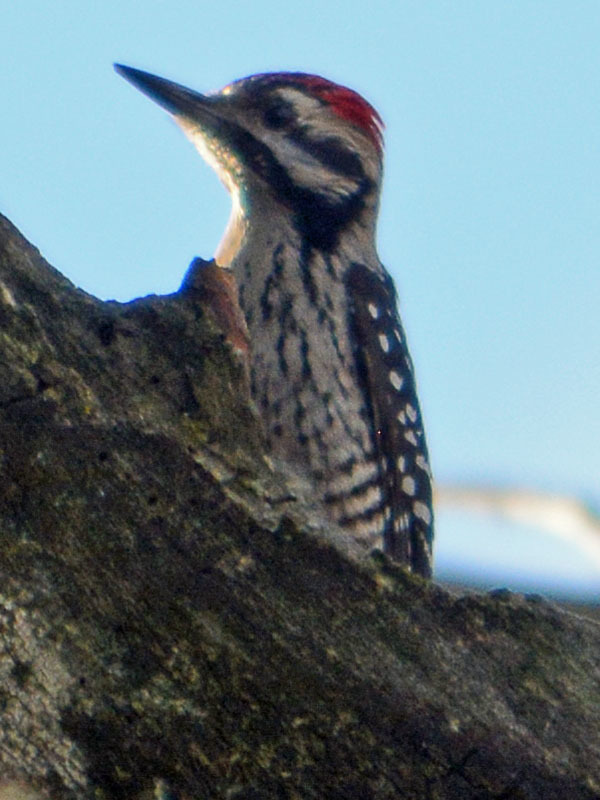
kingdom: Animalia
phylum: Chordata
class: Aves
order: Piciformes
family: Picidae
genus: Dryobates
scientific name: Dryobates scalaris
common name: Ladder-backed woodpecker
